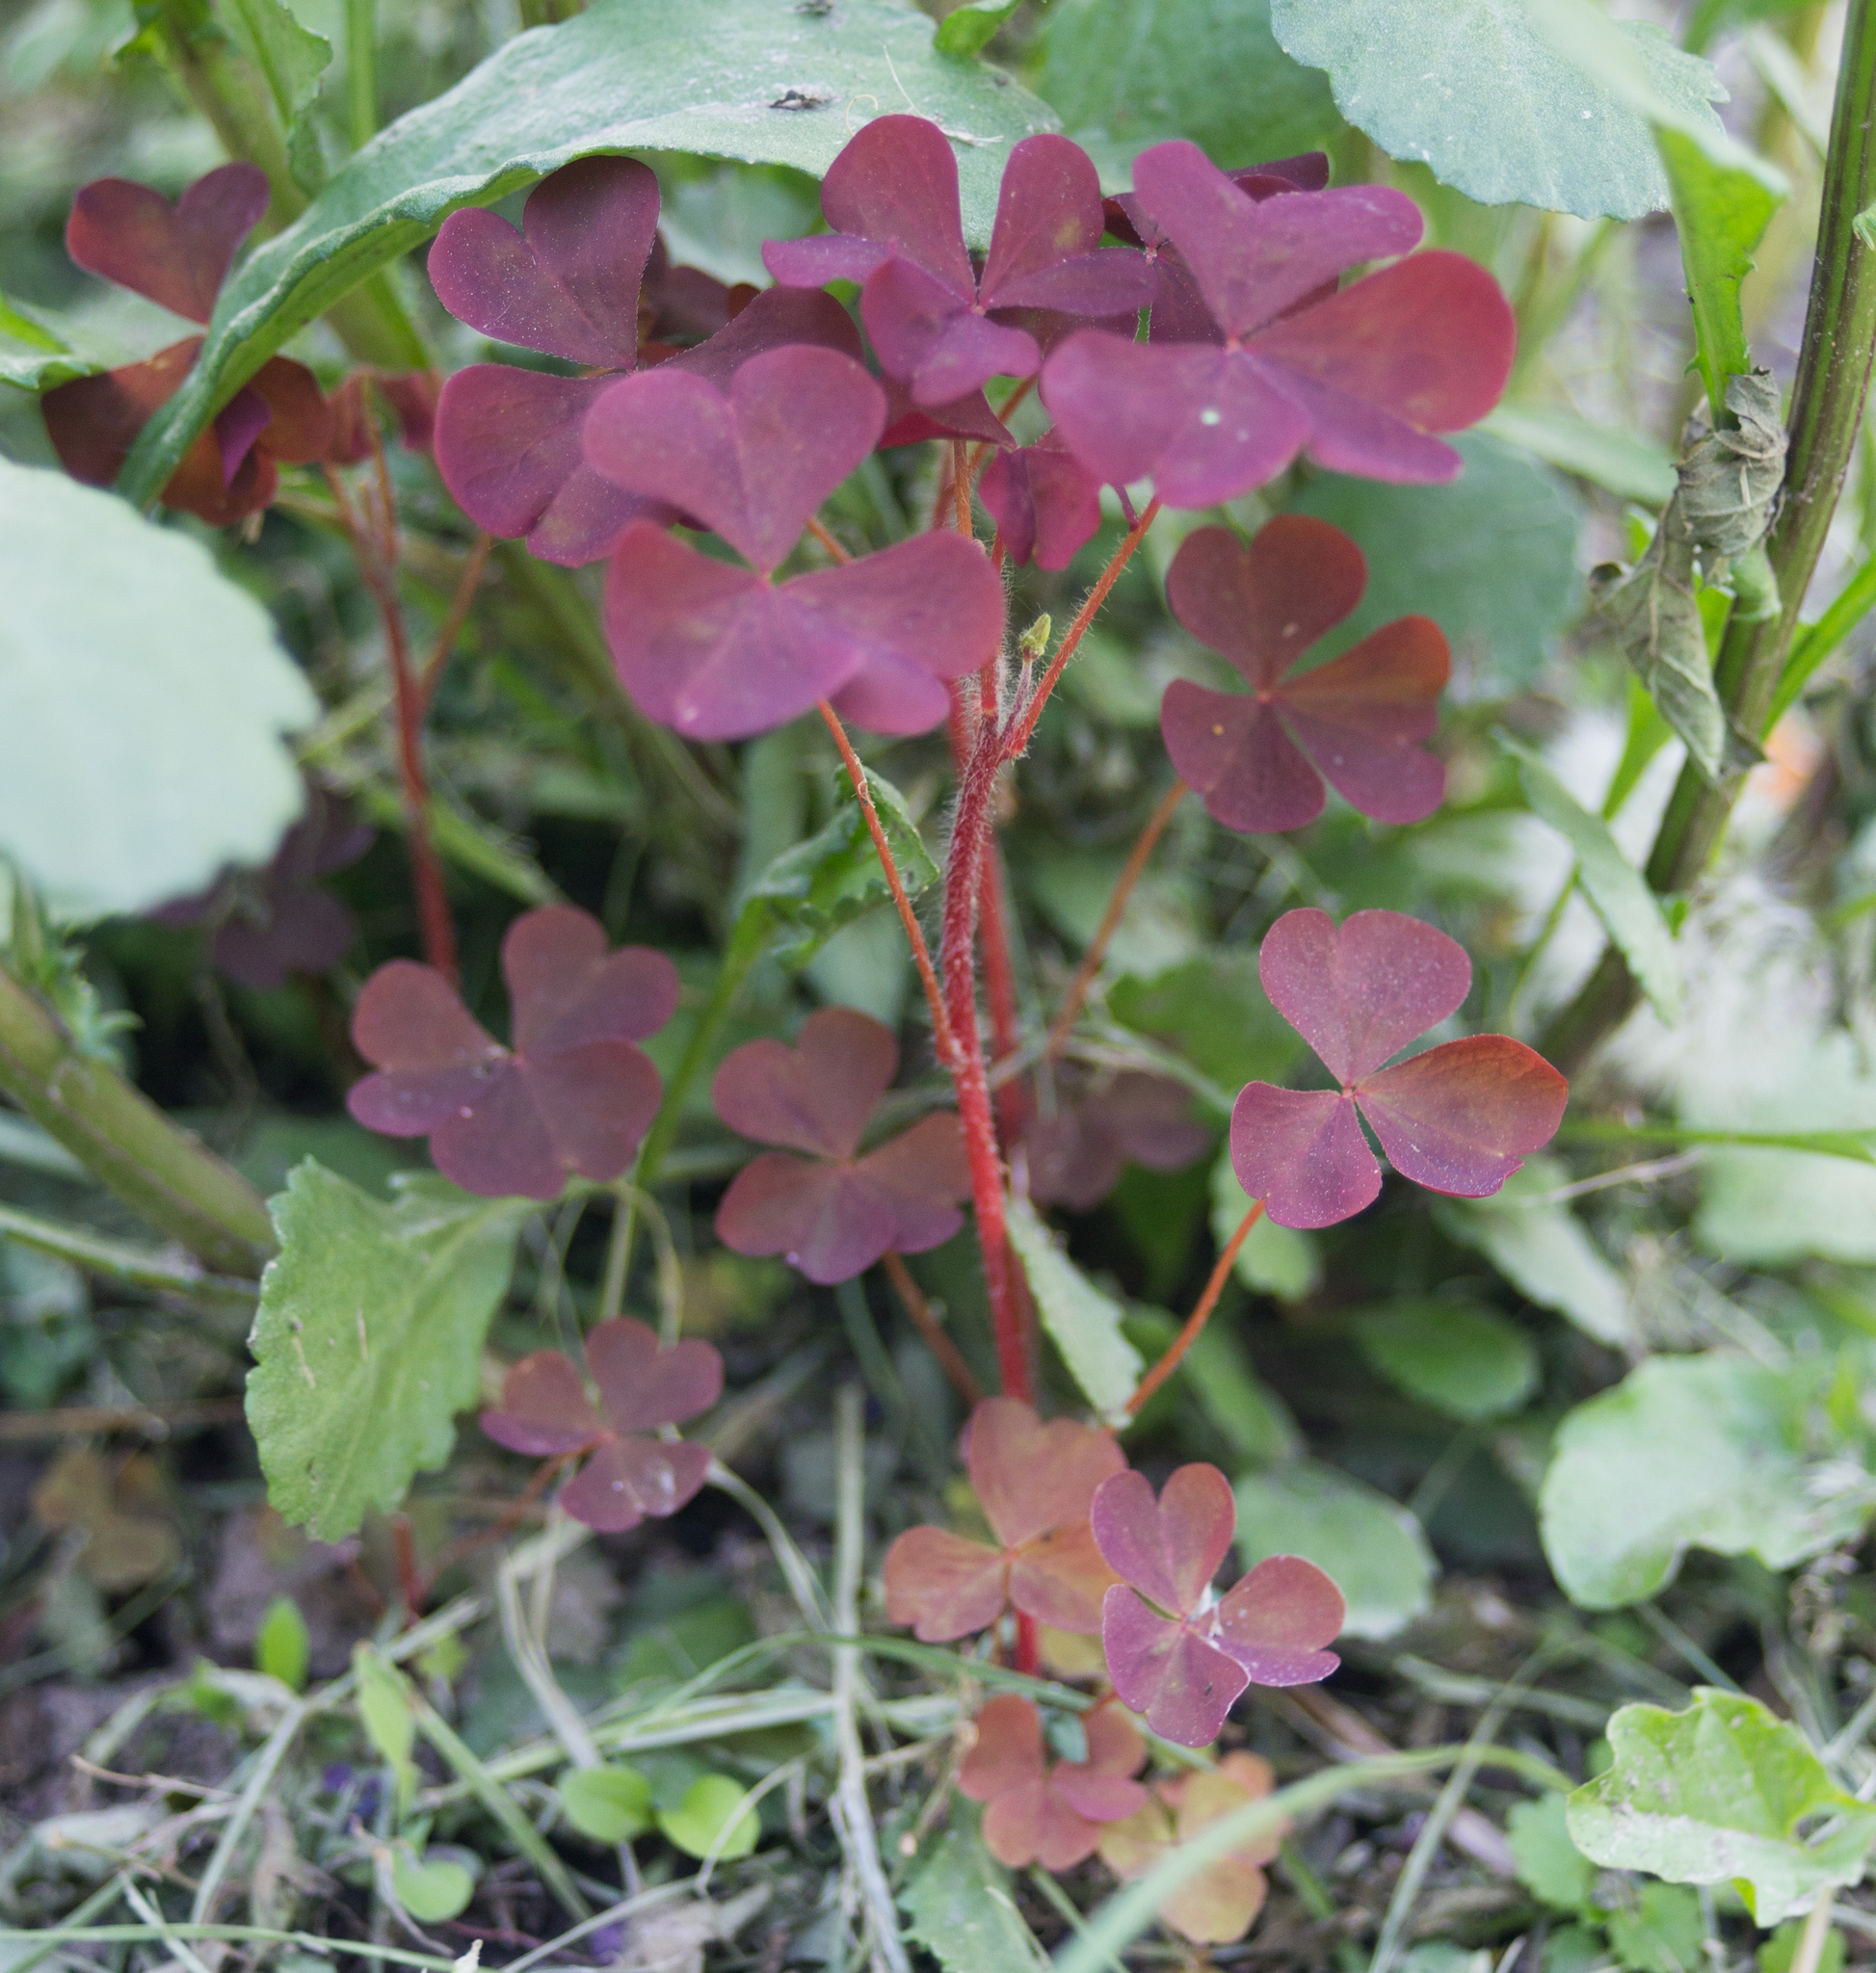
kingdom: Plantae
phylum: Tracheophyta
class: Magnoliopsida
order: Oxalidales
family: Oxalidaceae
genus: Oxalis
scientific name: Oxalis stricta
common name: Upright yellow-sorrel
